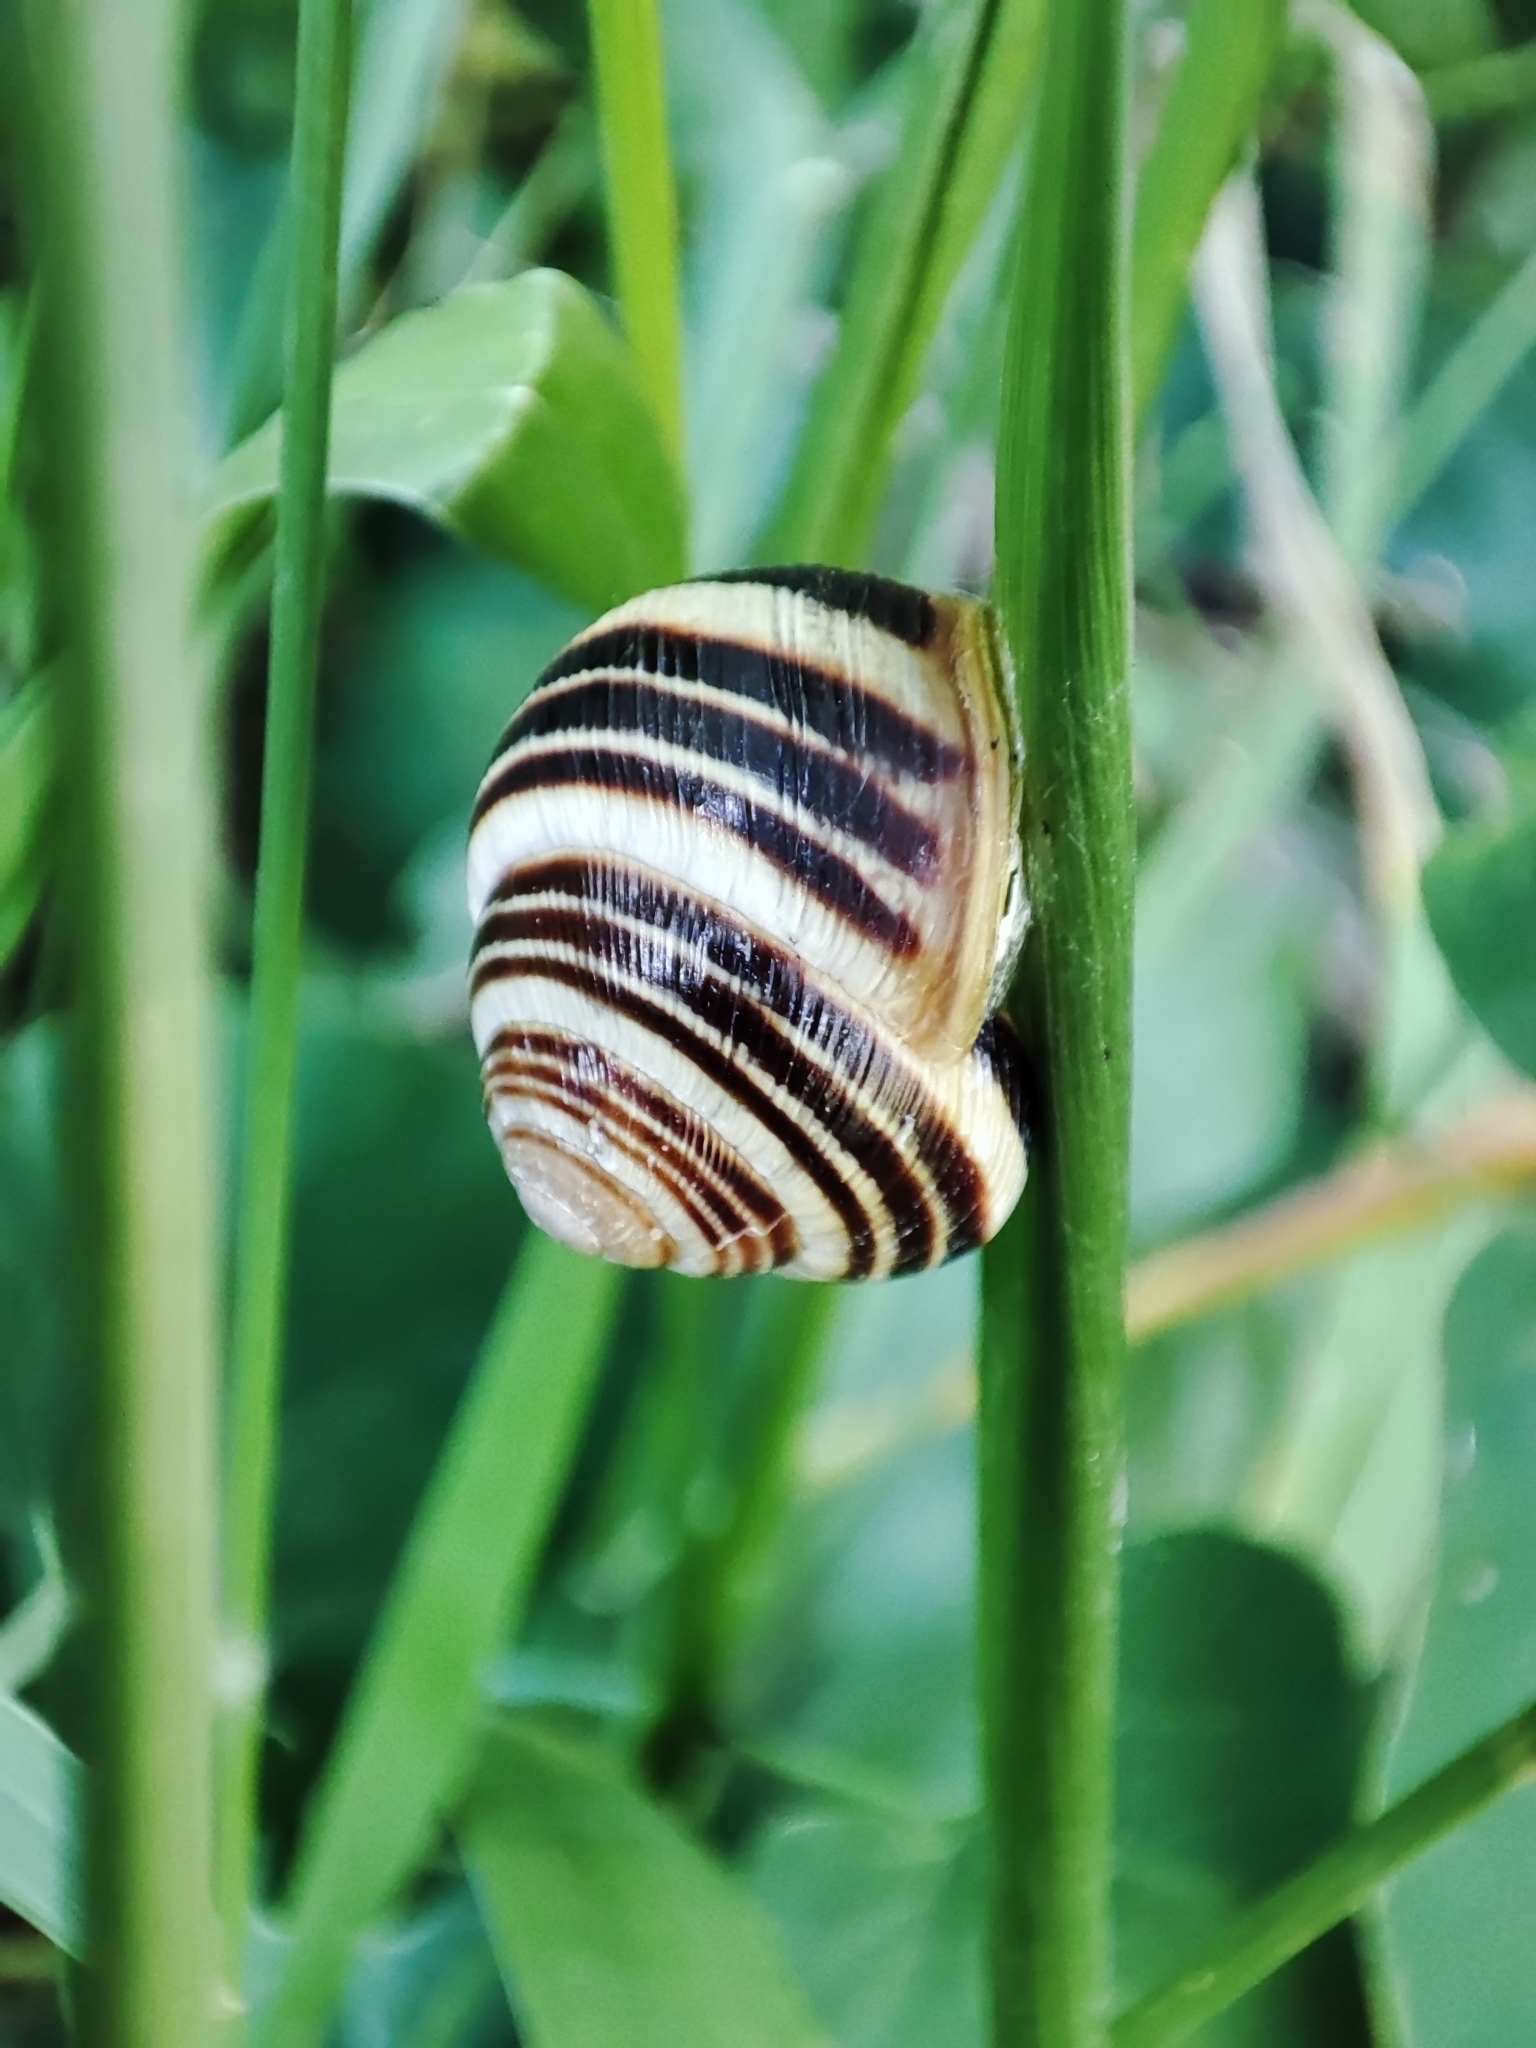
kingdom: Animalia
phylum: Mollusca
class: Gastropoda
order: Stylommatophora
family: Helicidae
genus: Caucasotachea
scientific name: Caucasotachea vindobonensis
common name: European helicid land snail
